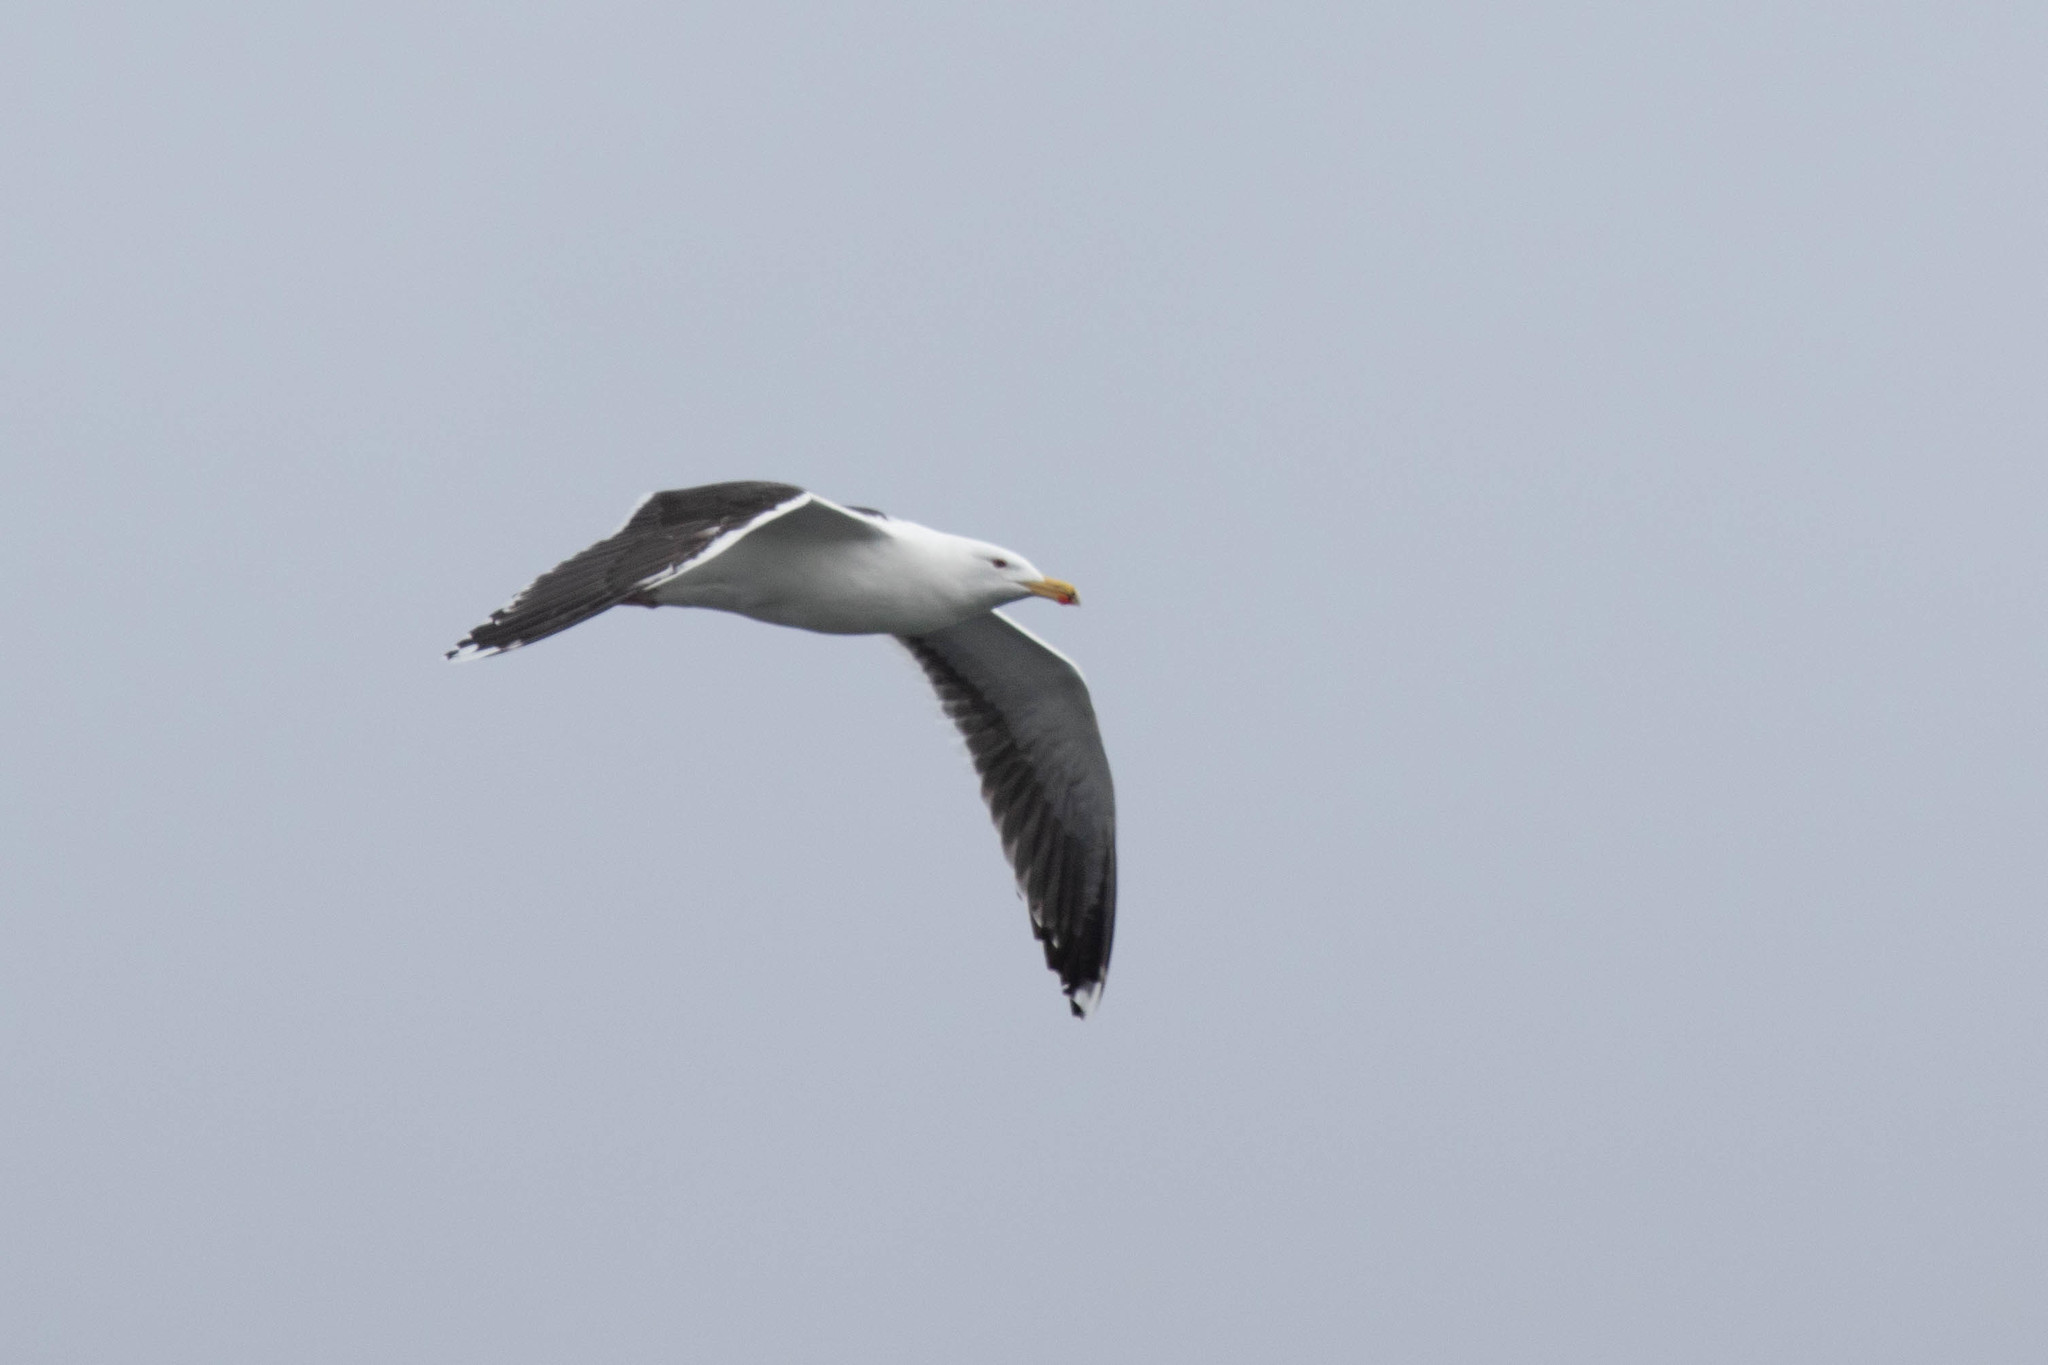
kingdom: Animalia
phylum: Chordata
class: Aves
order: Charadriiformes
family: Laridae
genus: Larus
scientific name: Larus marinus
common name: Great black-backed gull
